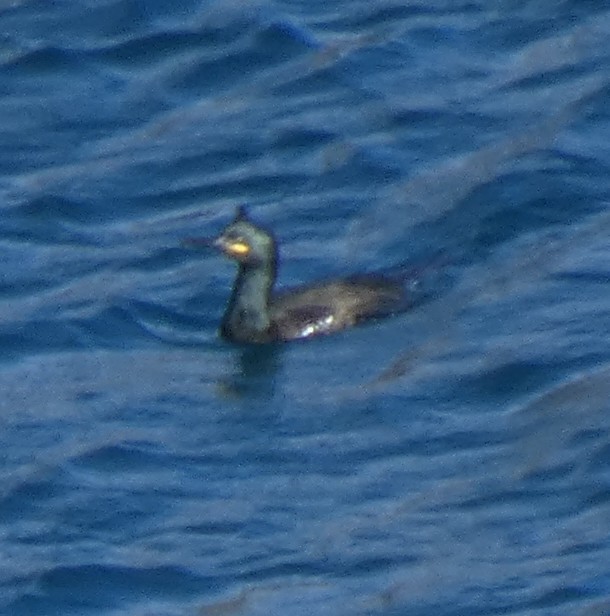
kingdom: Animalia
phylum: Chordata
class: Aves
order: Suliformes
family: Phalacrocoracidae
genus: Phalacrocorax
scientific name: Phalacrocorax aristotelis
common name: European shag
